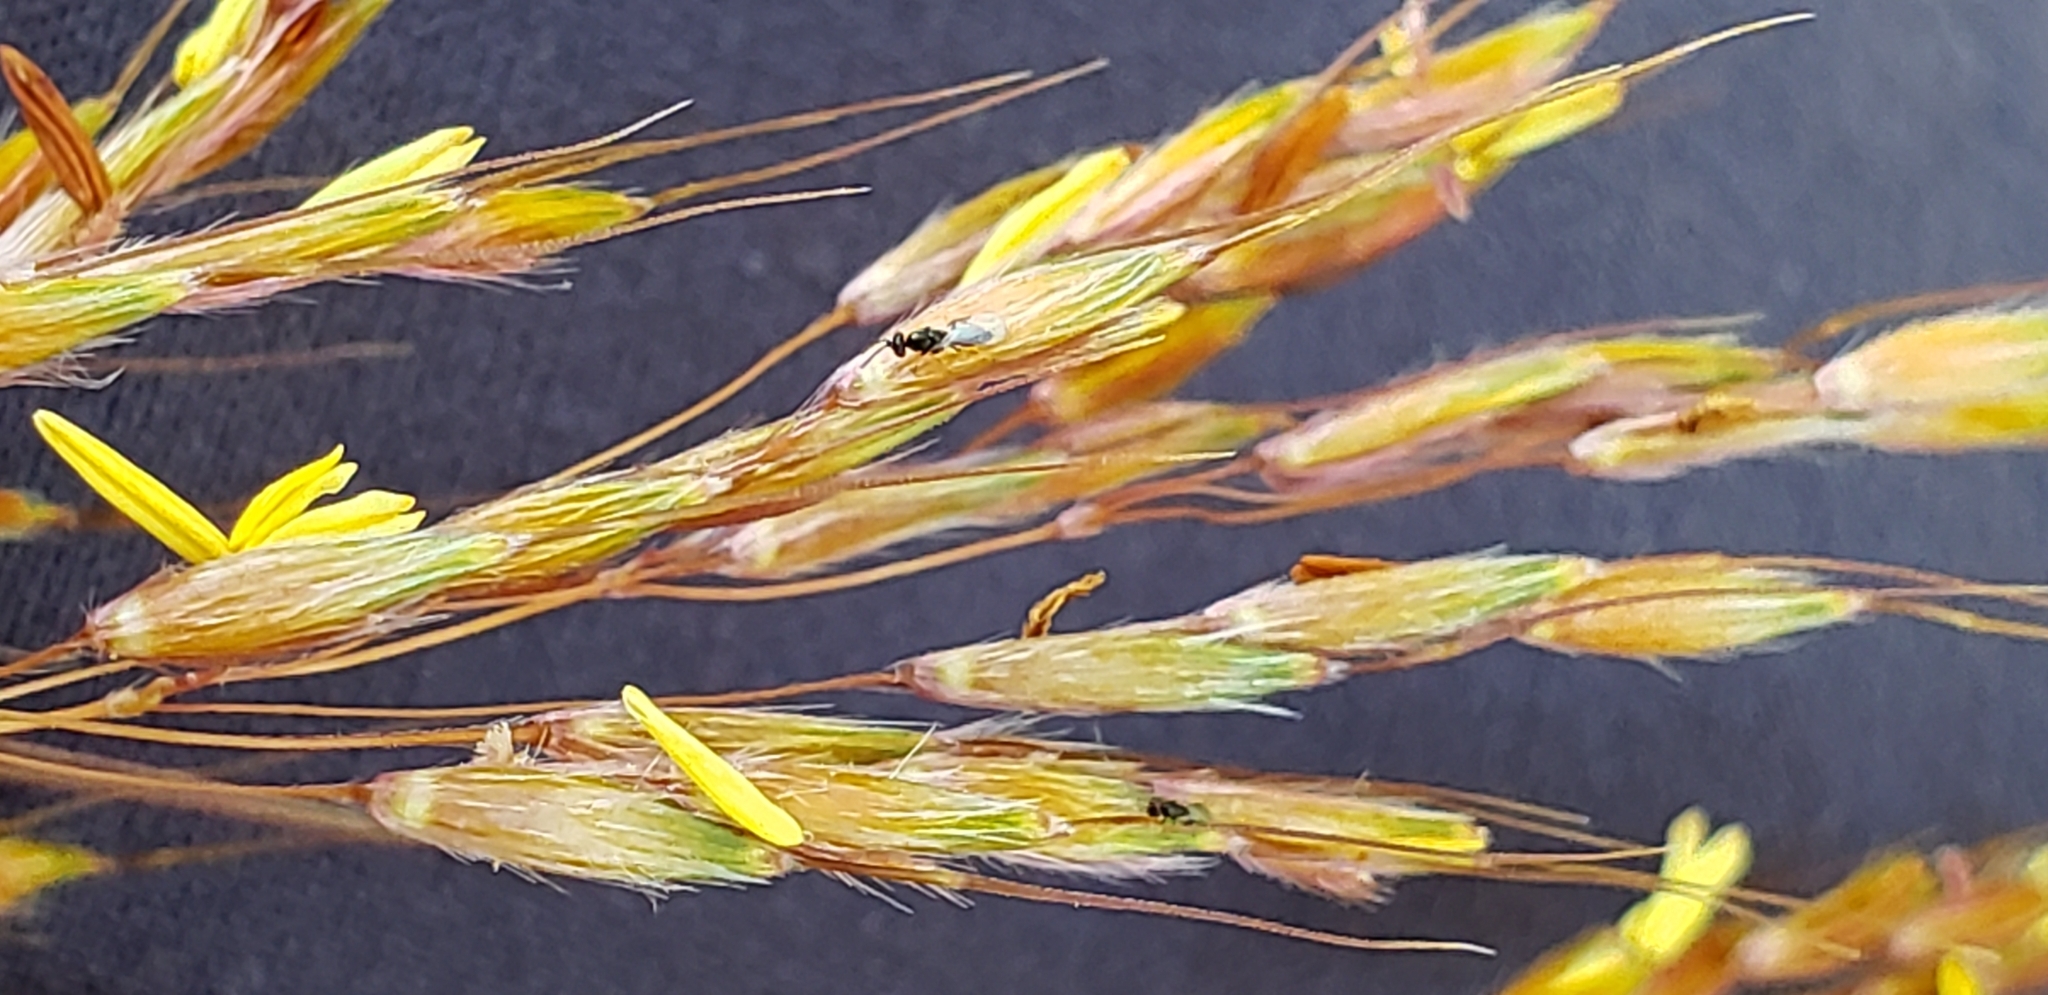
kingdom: Plantae
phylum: Tracheophyta
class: Liliopsida
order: Poales
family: Poaceae
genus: Sorghastrum
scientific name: Sorghastrum nutans
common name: Indian grass
